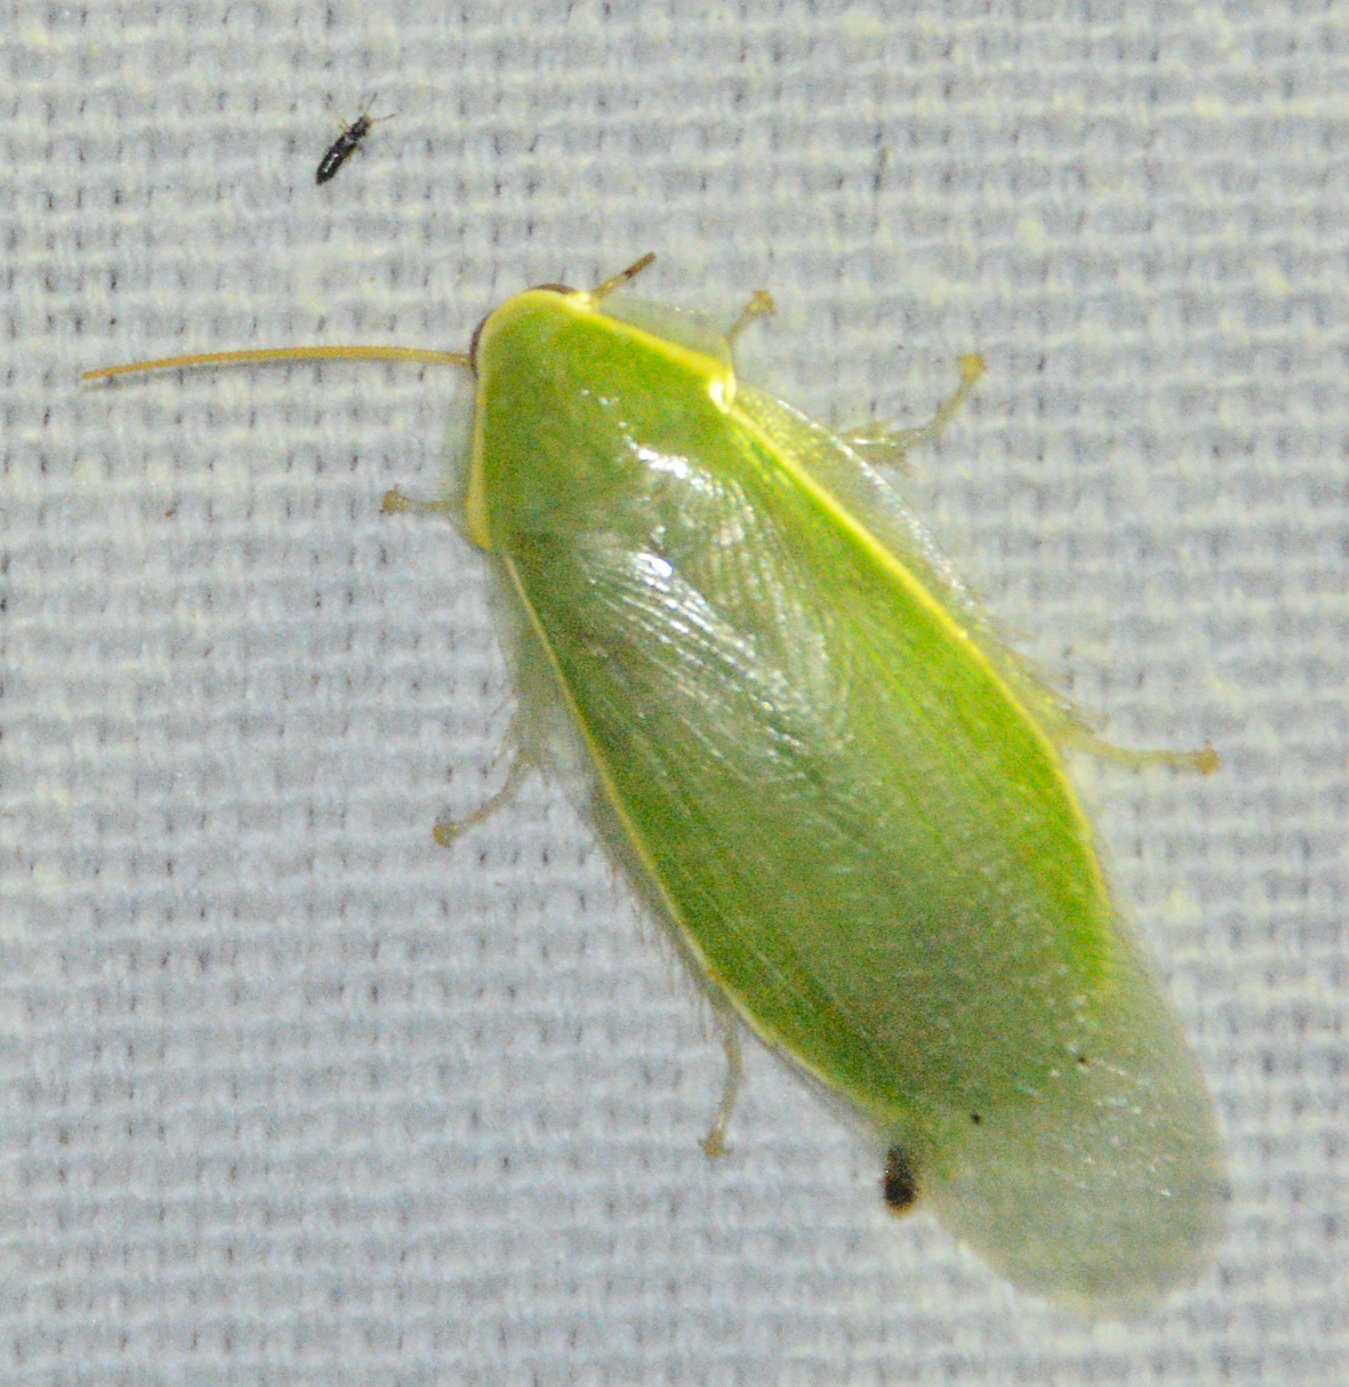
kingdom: Animalia
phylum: Arthropoda
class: Insecta
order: Blattodea
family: Blaberidae
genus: Panchlora
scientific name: Panchlora nivea
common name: Cuban cockroach
